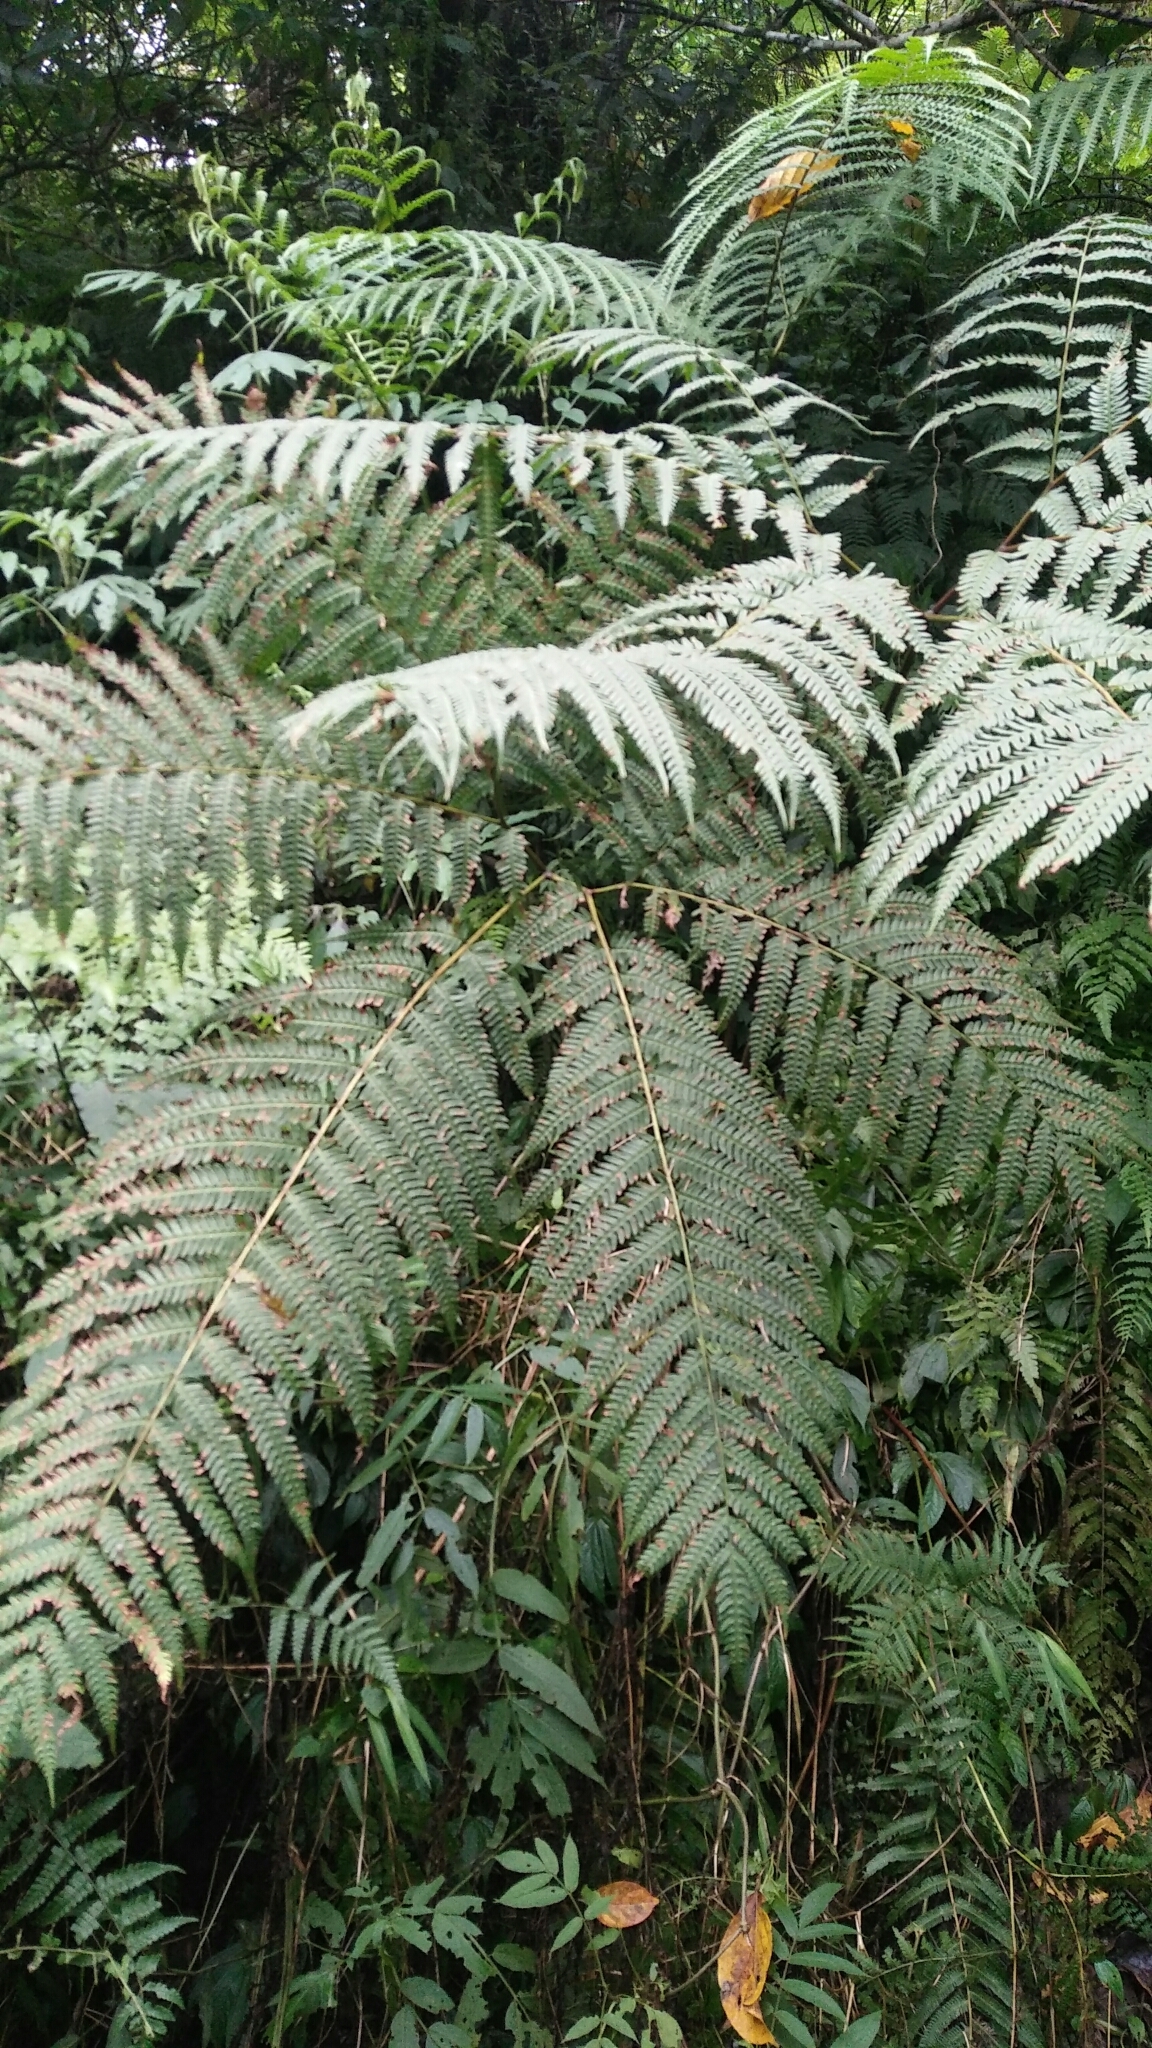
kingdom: Plantae
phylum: Tracheophyta
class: Polypodiopsida
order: Polypodiales
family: Pteridaceae
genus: Pteris
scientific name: Pteris wallichiana
